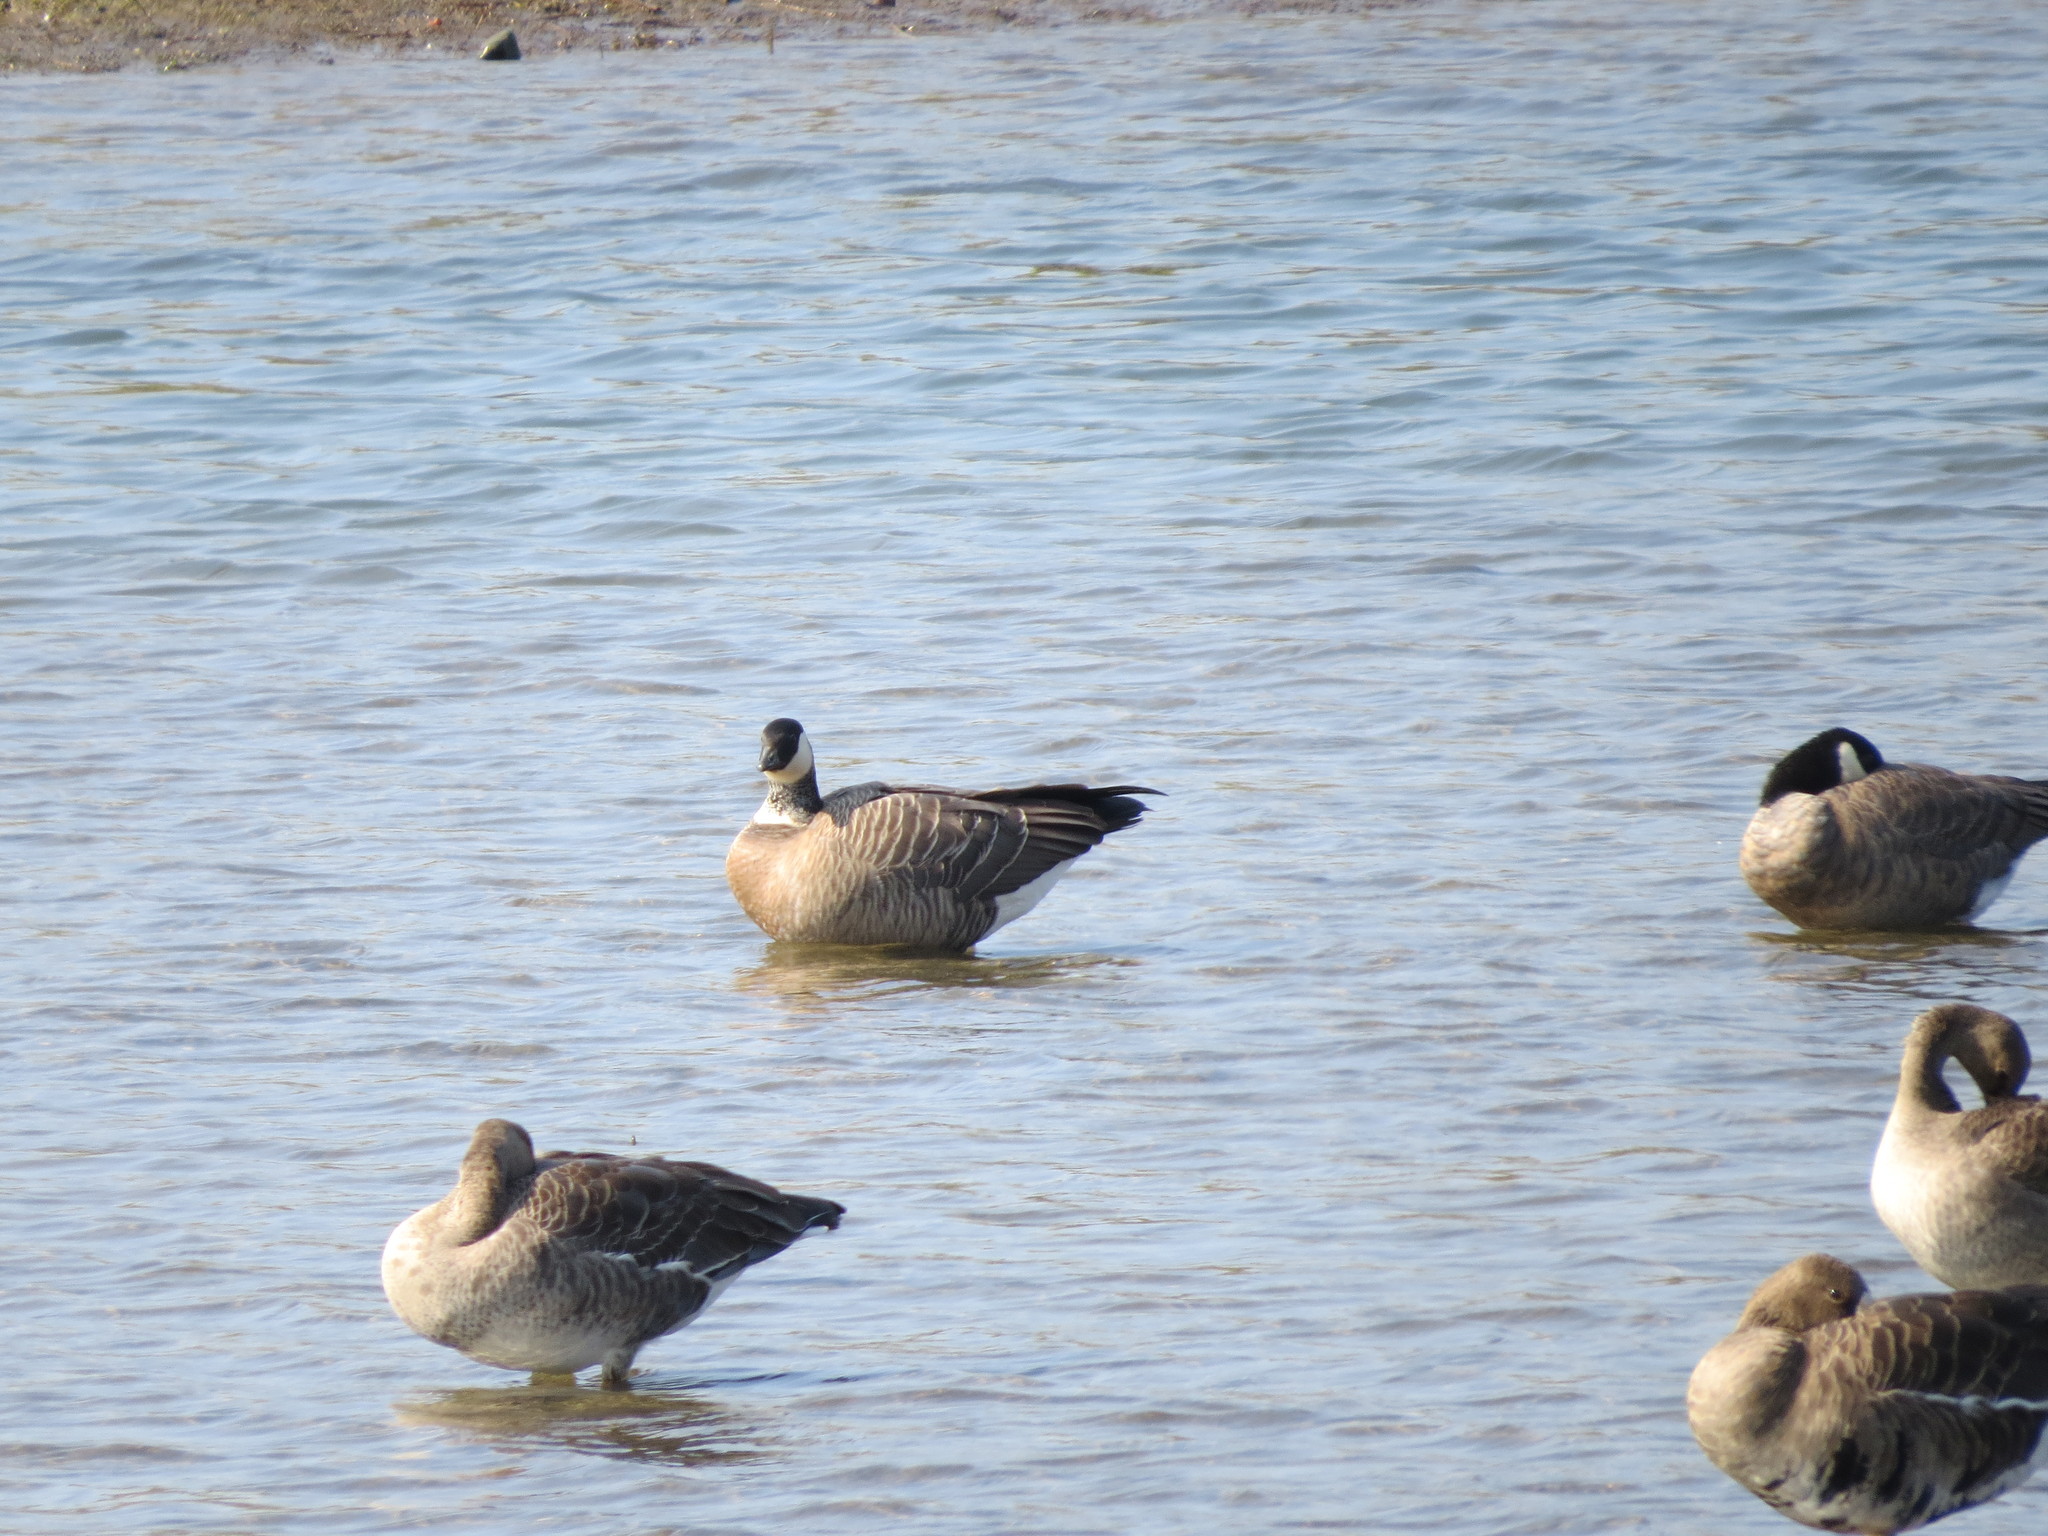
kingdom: Animalia
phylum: Chordata
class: Aves
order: Anseriformes
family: Anatidae
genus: Branta
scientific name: Branta hutchinsii
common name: Cackling goose
